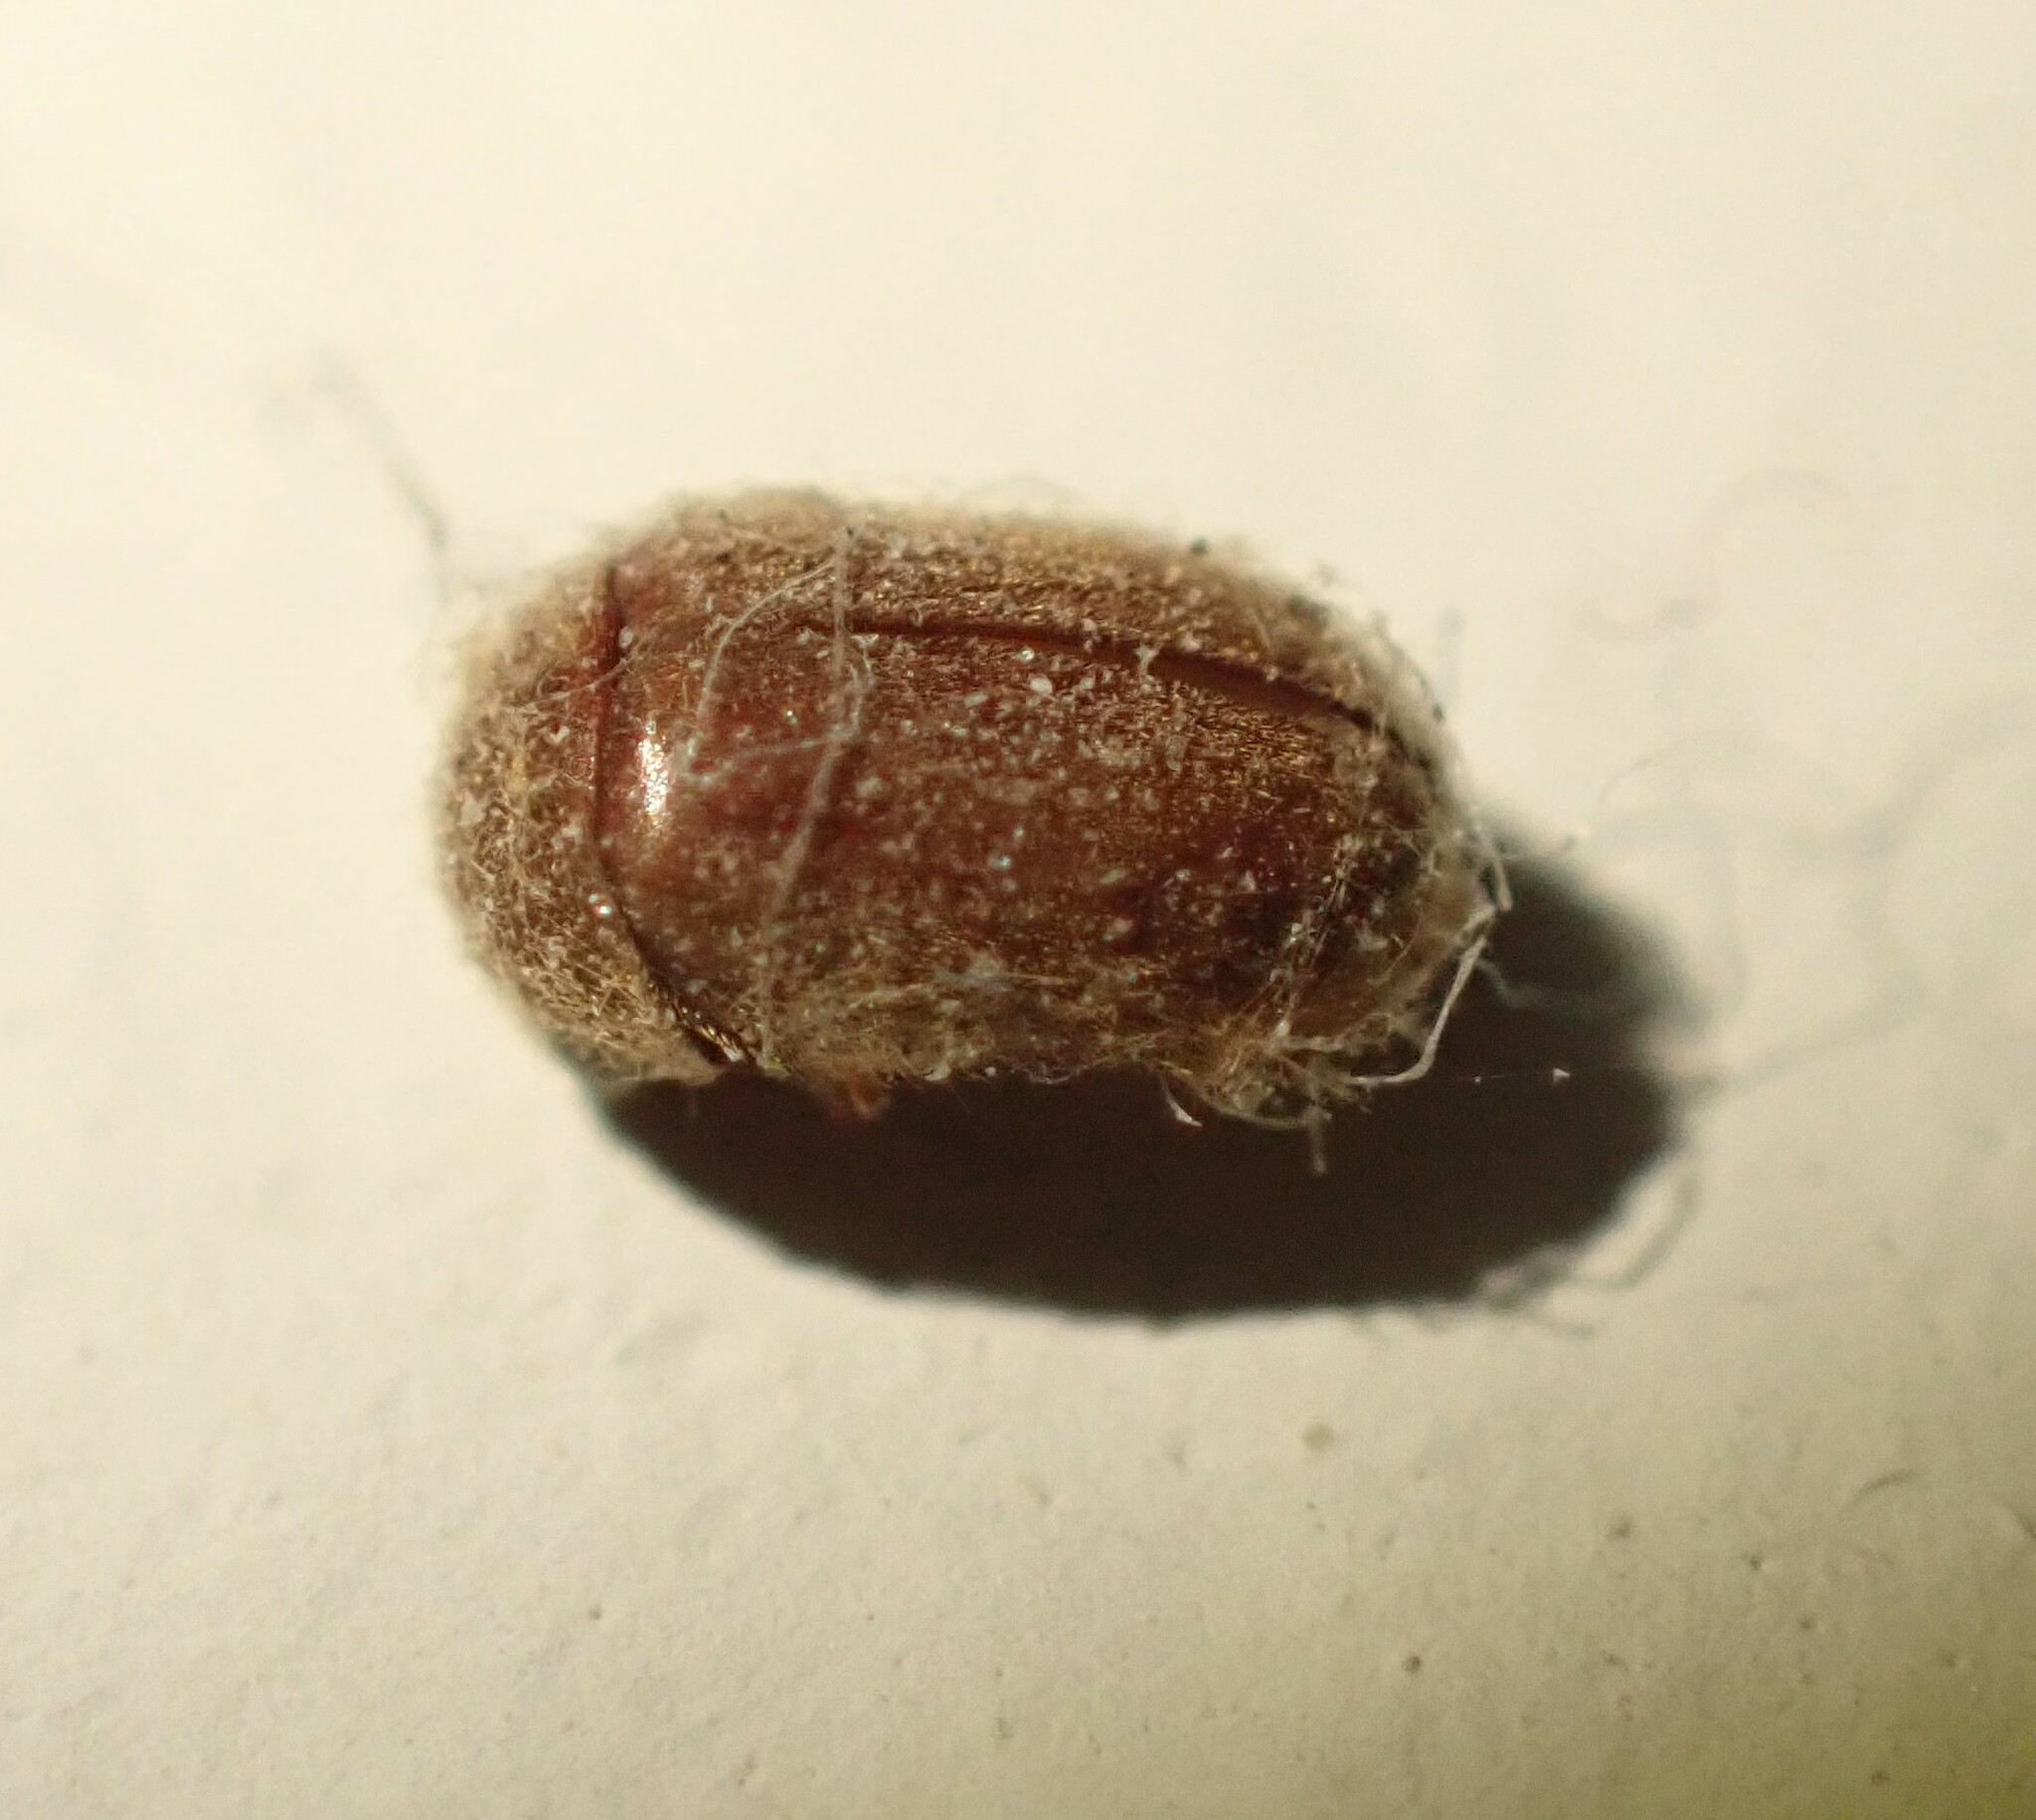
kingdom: Animalia
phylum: Arthropoda
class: Insecta
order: Coleoptera
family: Anobiidae
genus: Lasioderma
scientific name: Lasioderma serricorne
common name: Cigarette beetle
